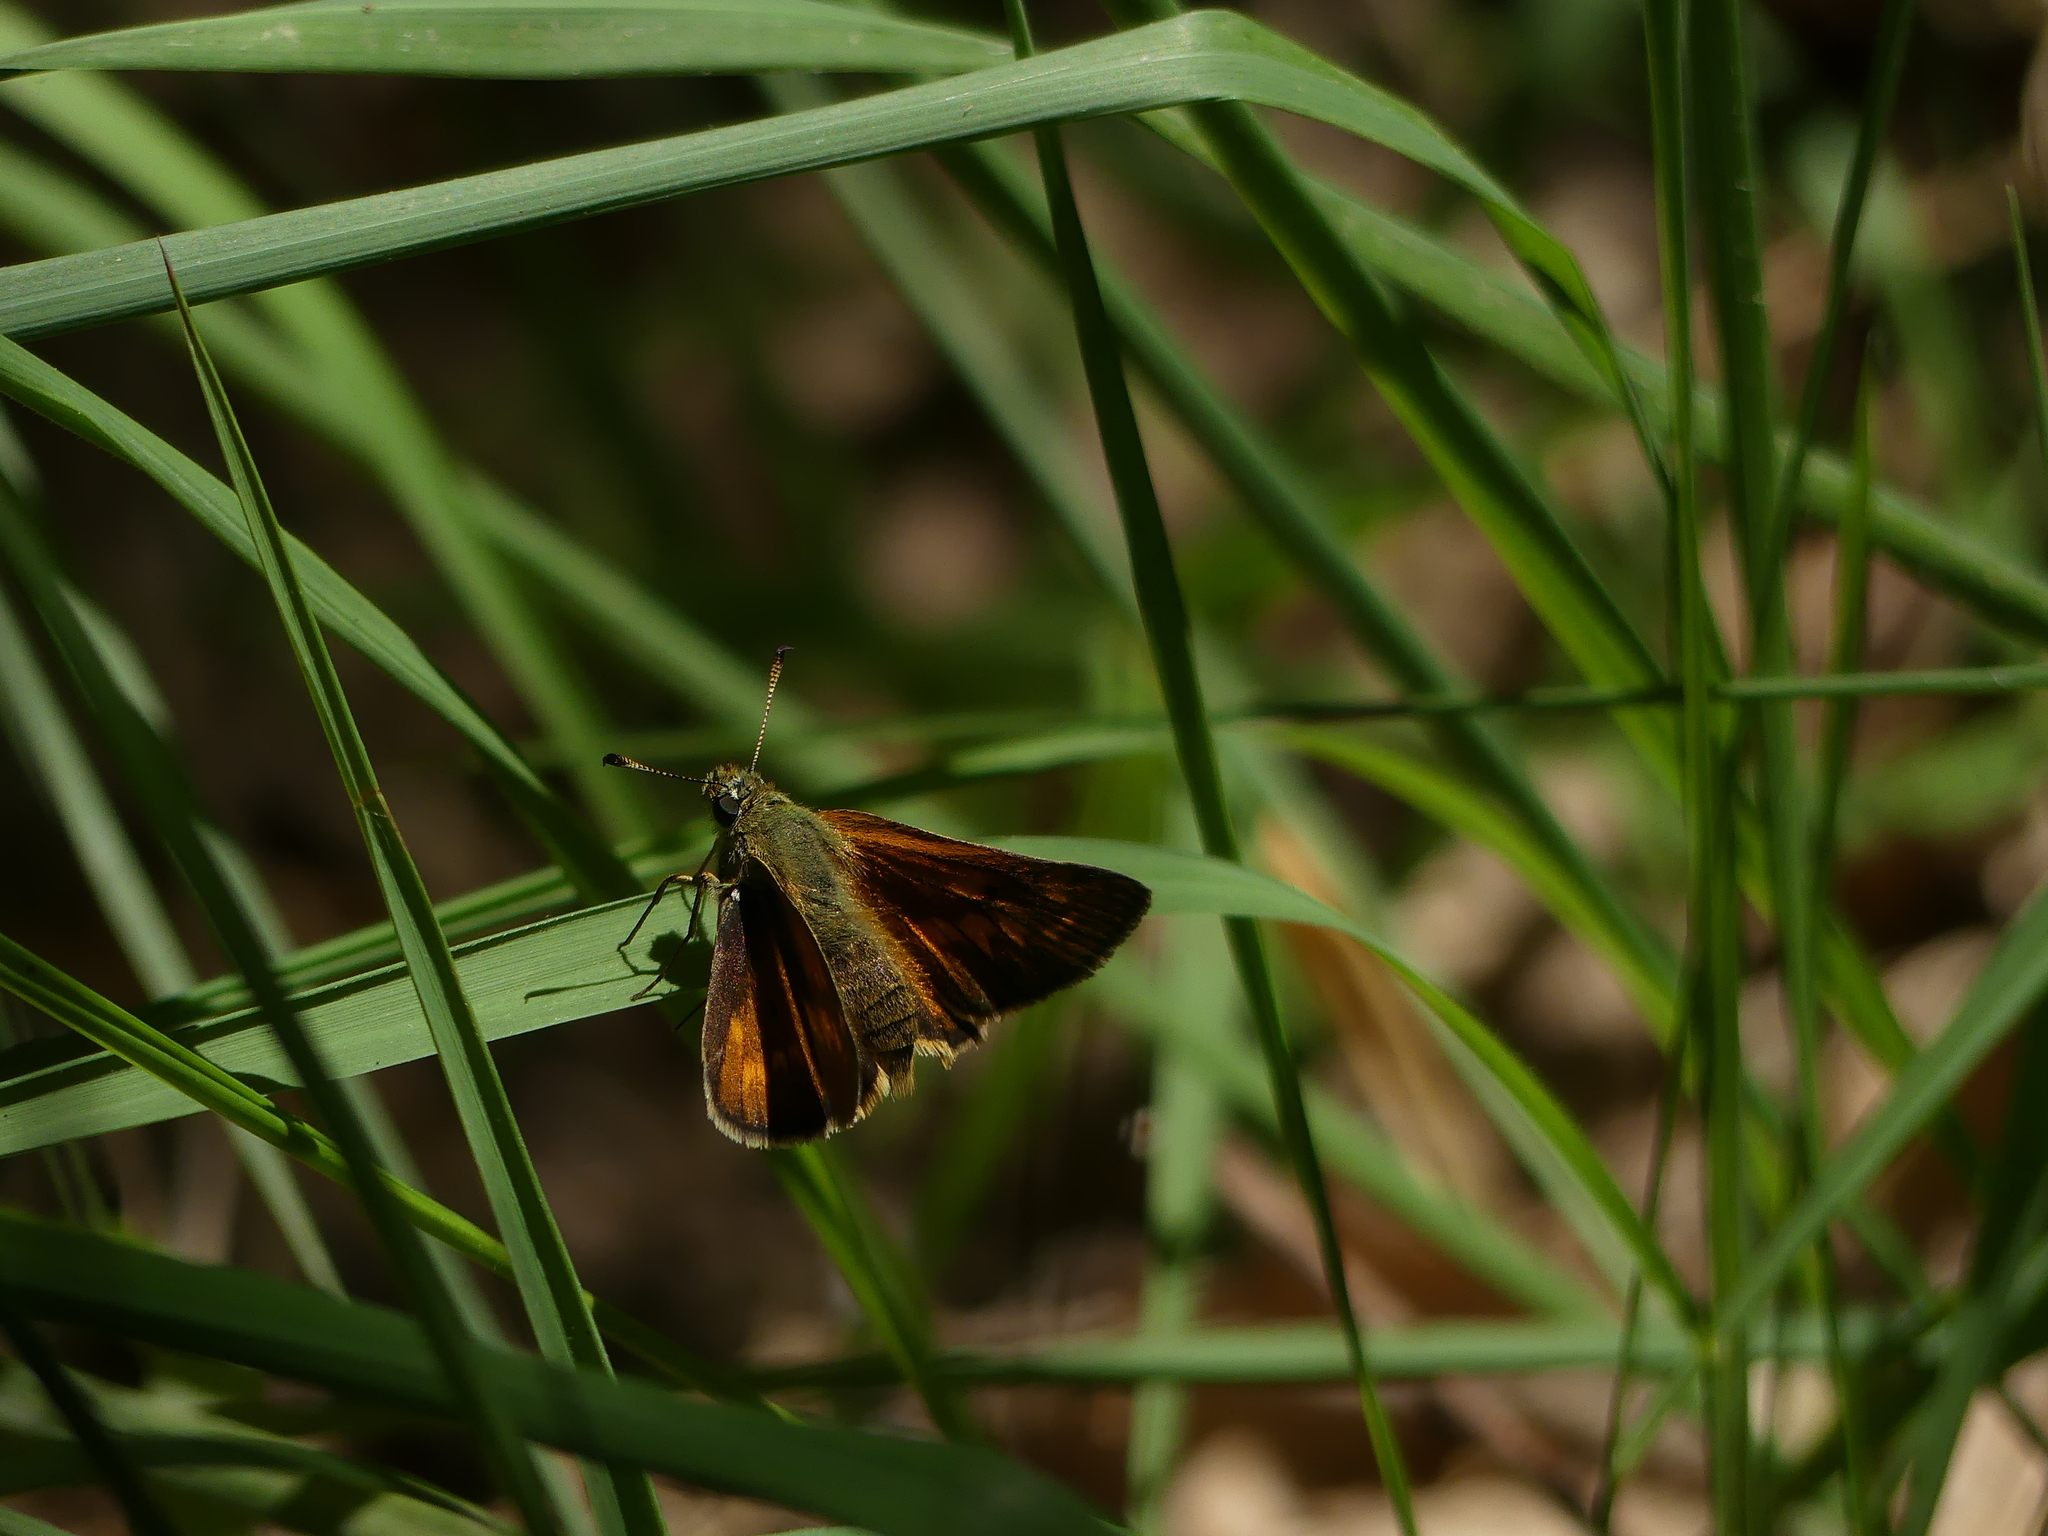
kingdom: Animalia
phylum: Arthropoda
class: Insecta
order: Lepidoptera
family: Hesperiidae
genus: Ochlodes
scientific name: Ochlodes venata
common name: Large skipper
